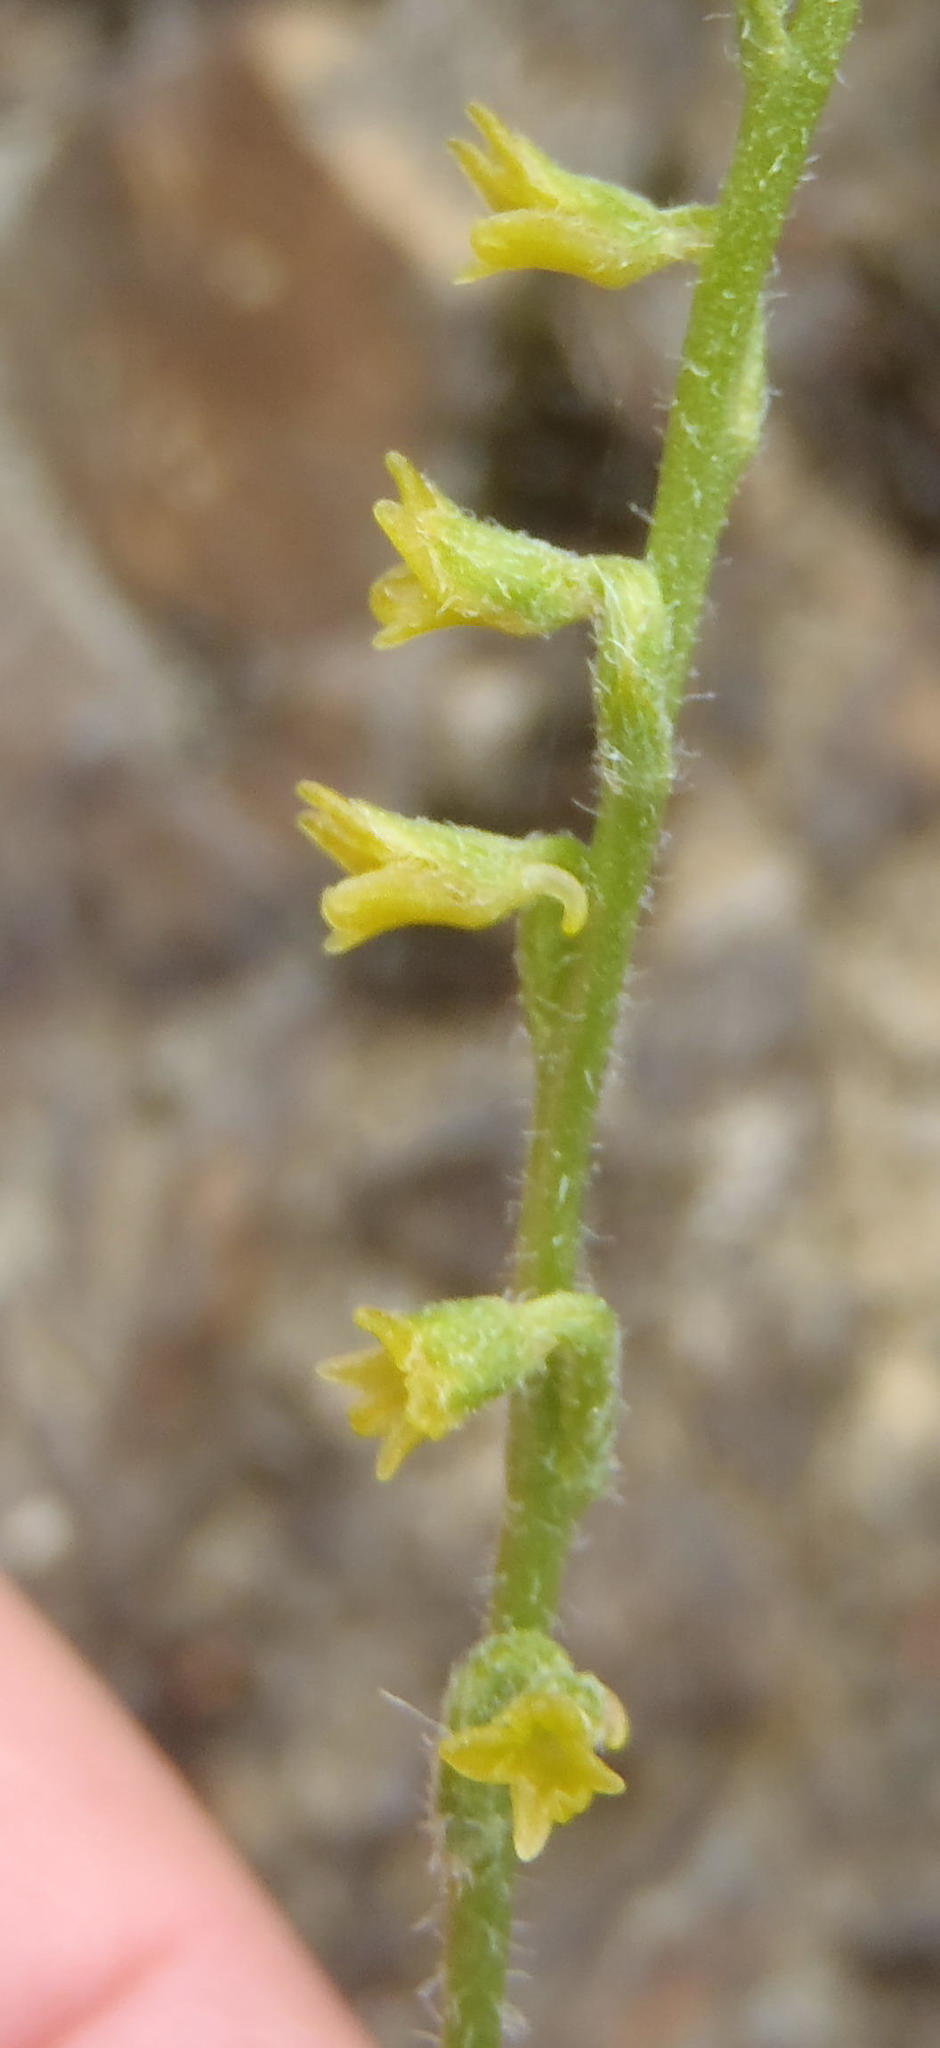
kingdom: Plantae
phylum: Tracheophyta
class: Liliopsida
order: Asparagales
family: Orchidaceae
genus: Holothrix
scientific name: Holothrix brevipetala
